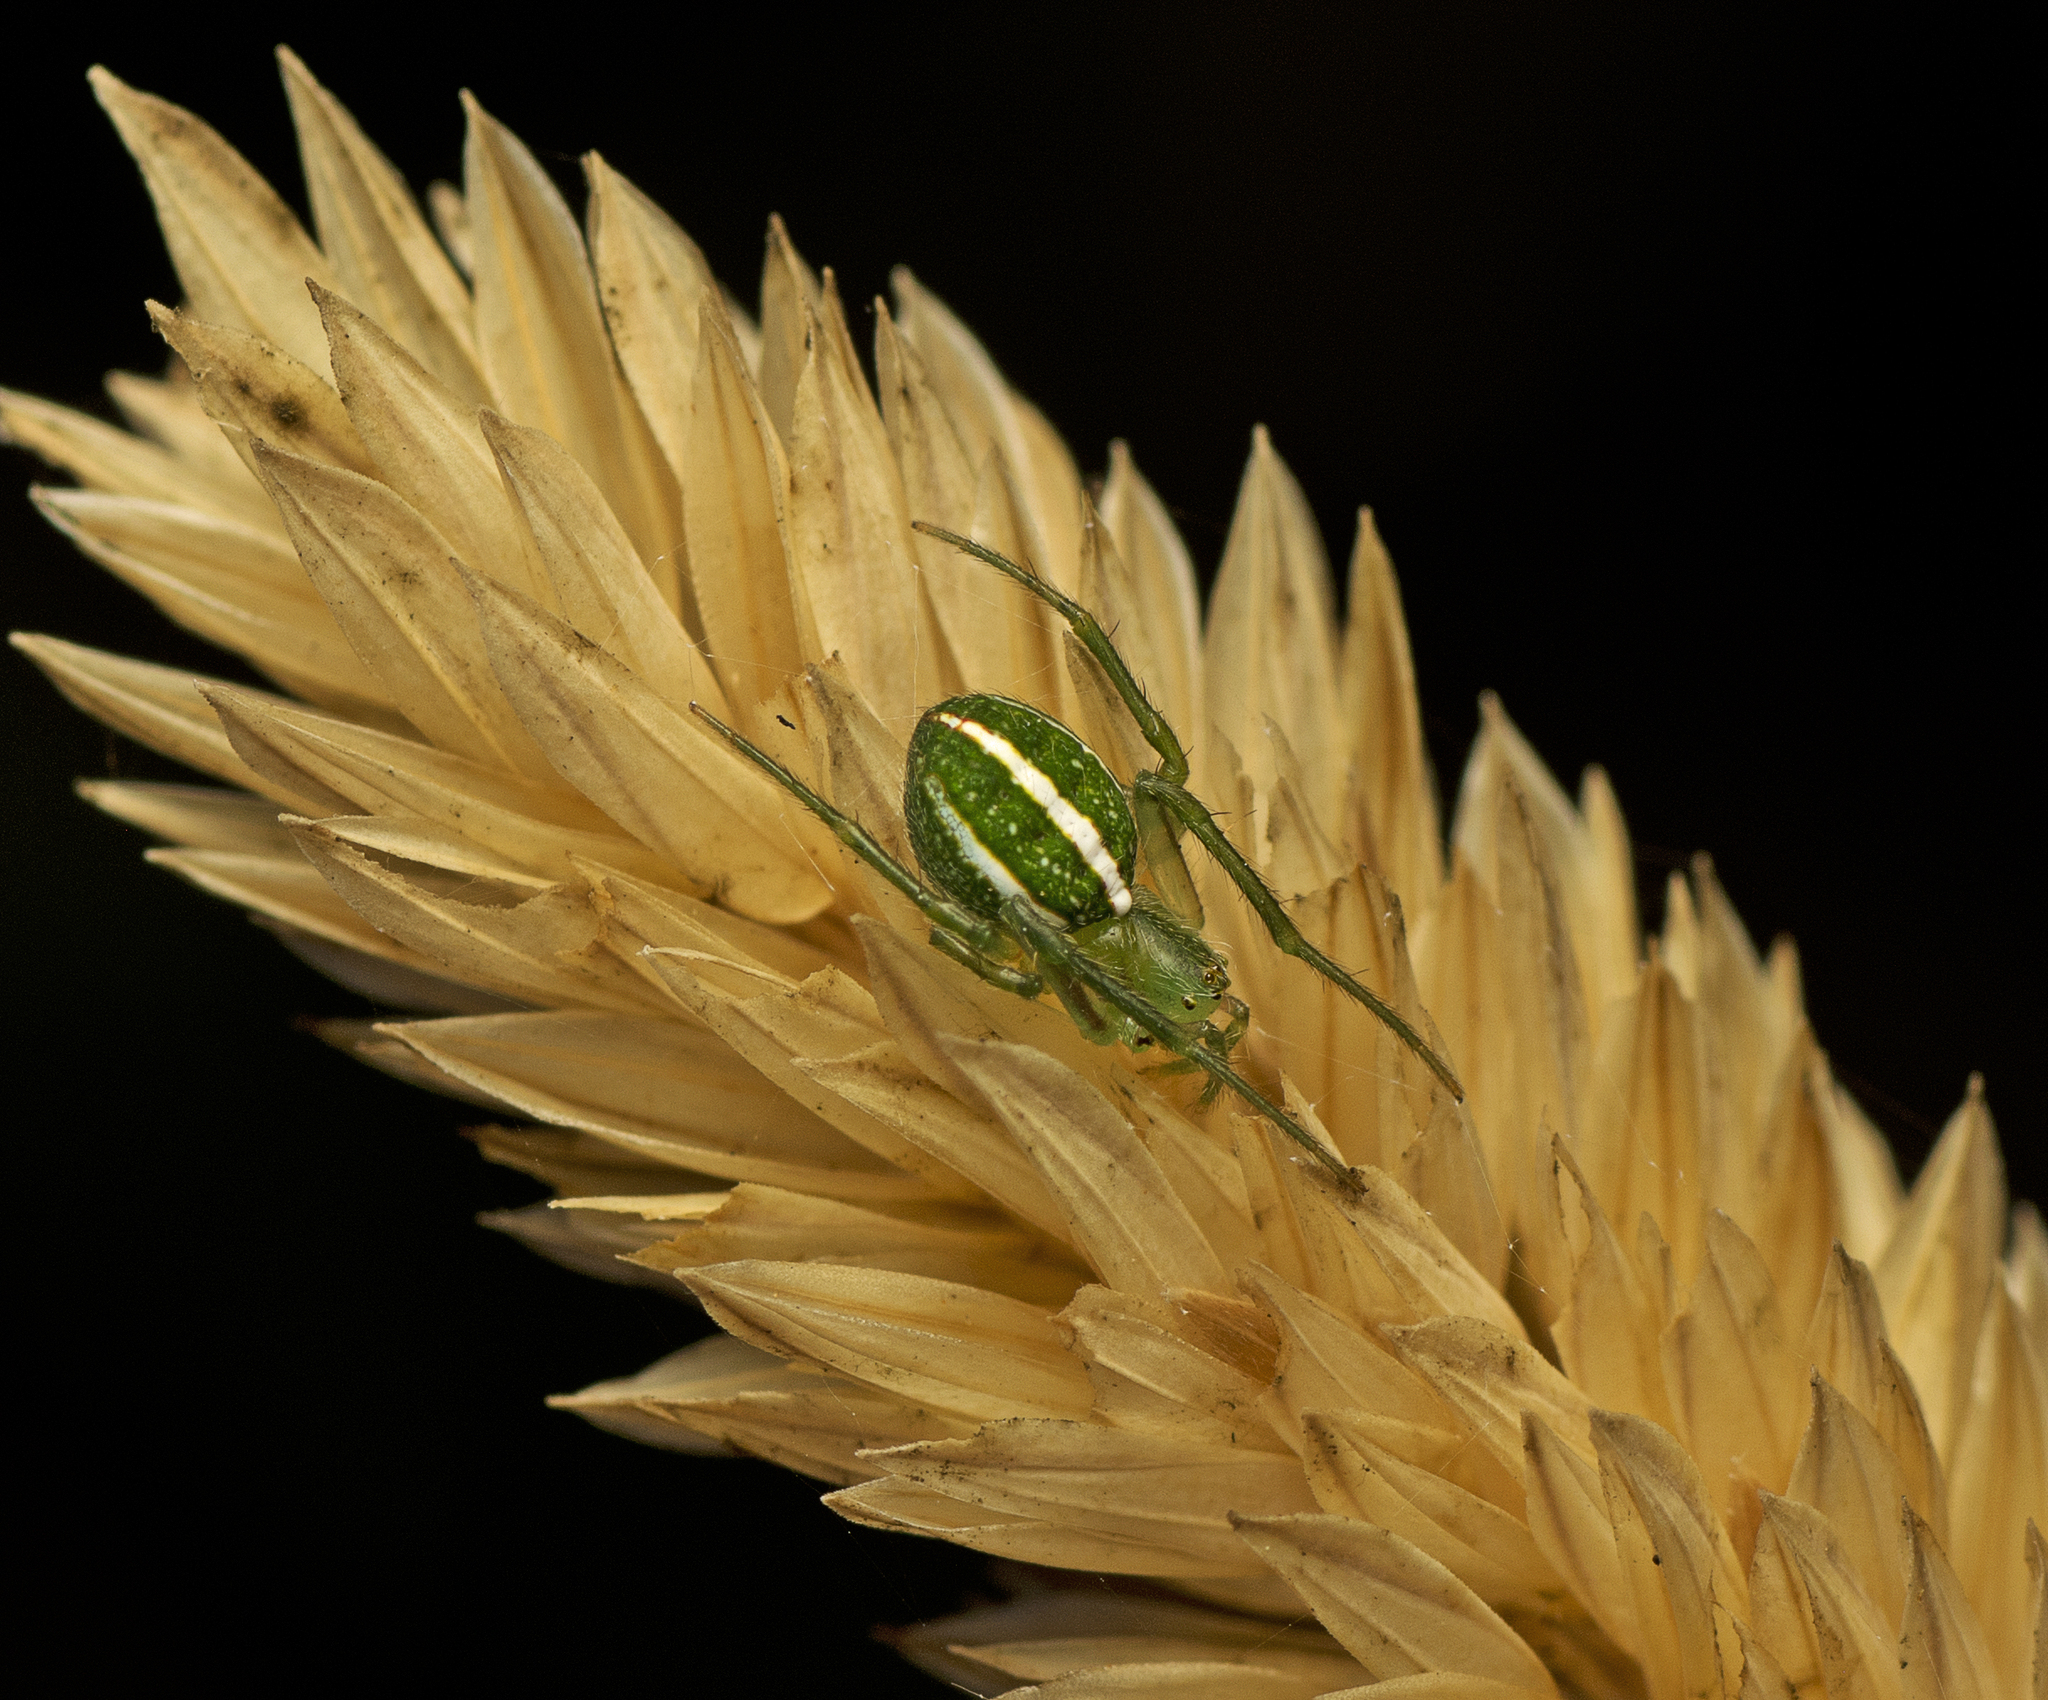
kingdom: Animalia
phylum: Arthropoda
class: Arachnida
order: Araneae
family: Araneidae
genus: Araneus
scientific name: Araneus ginninderranus
